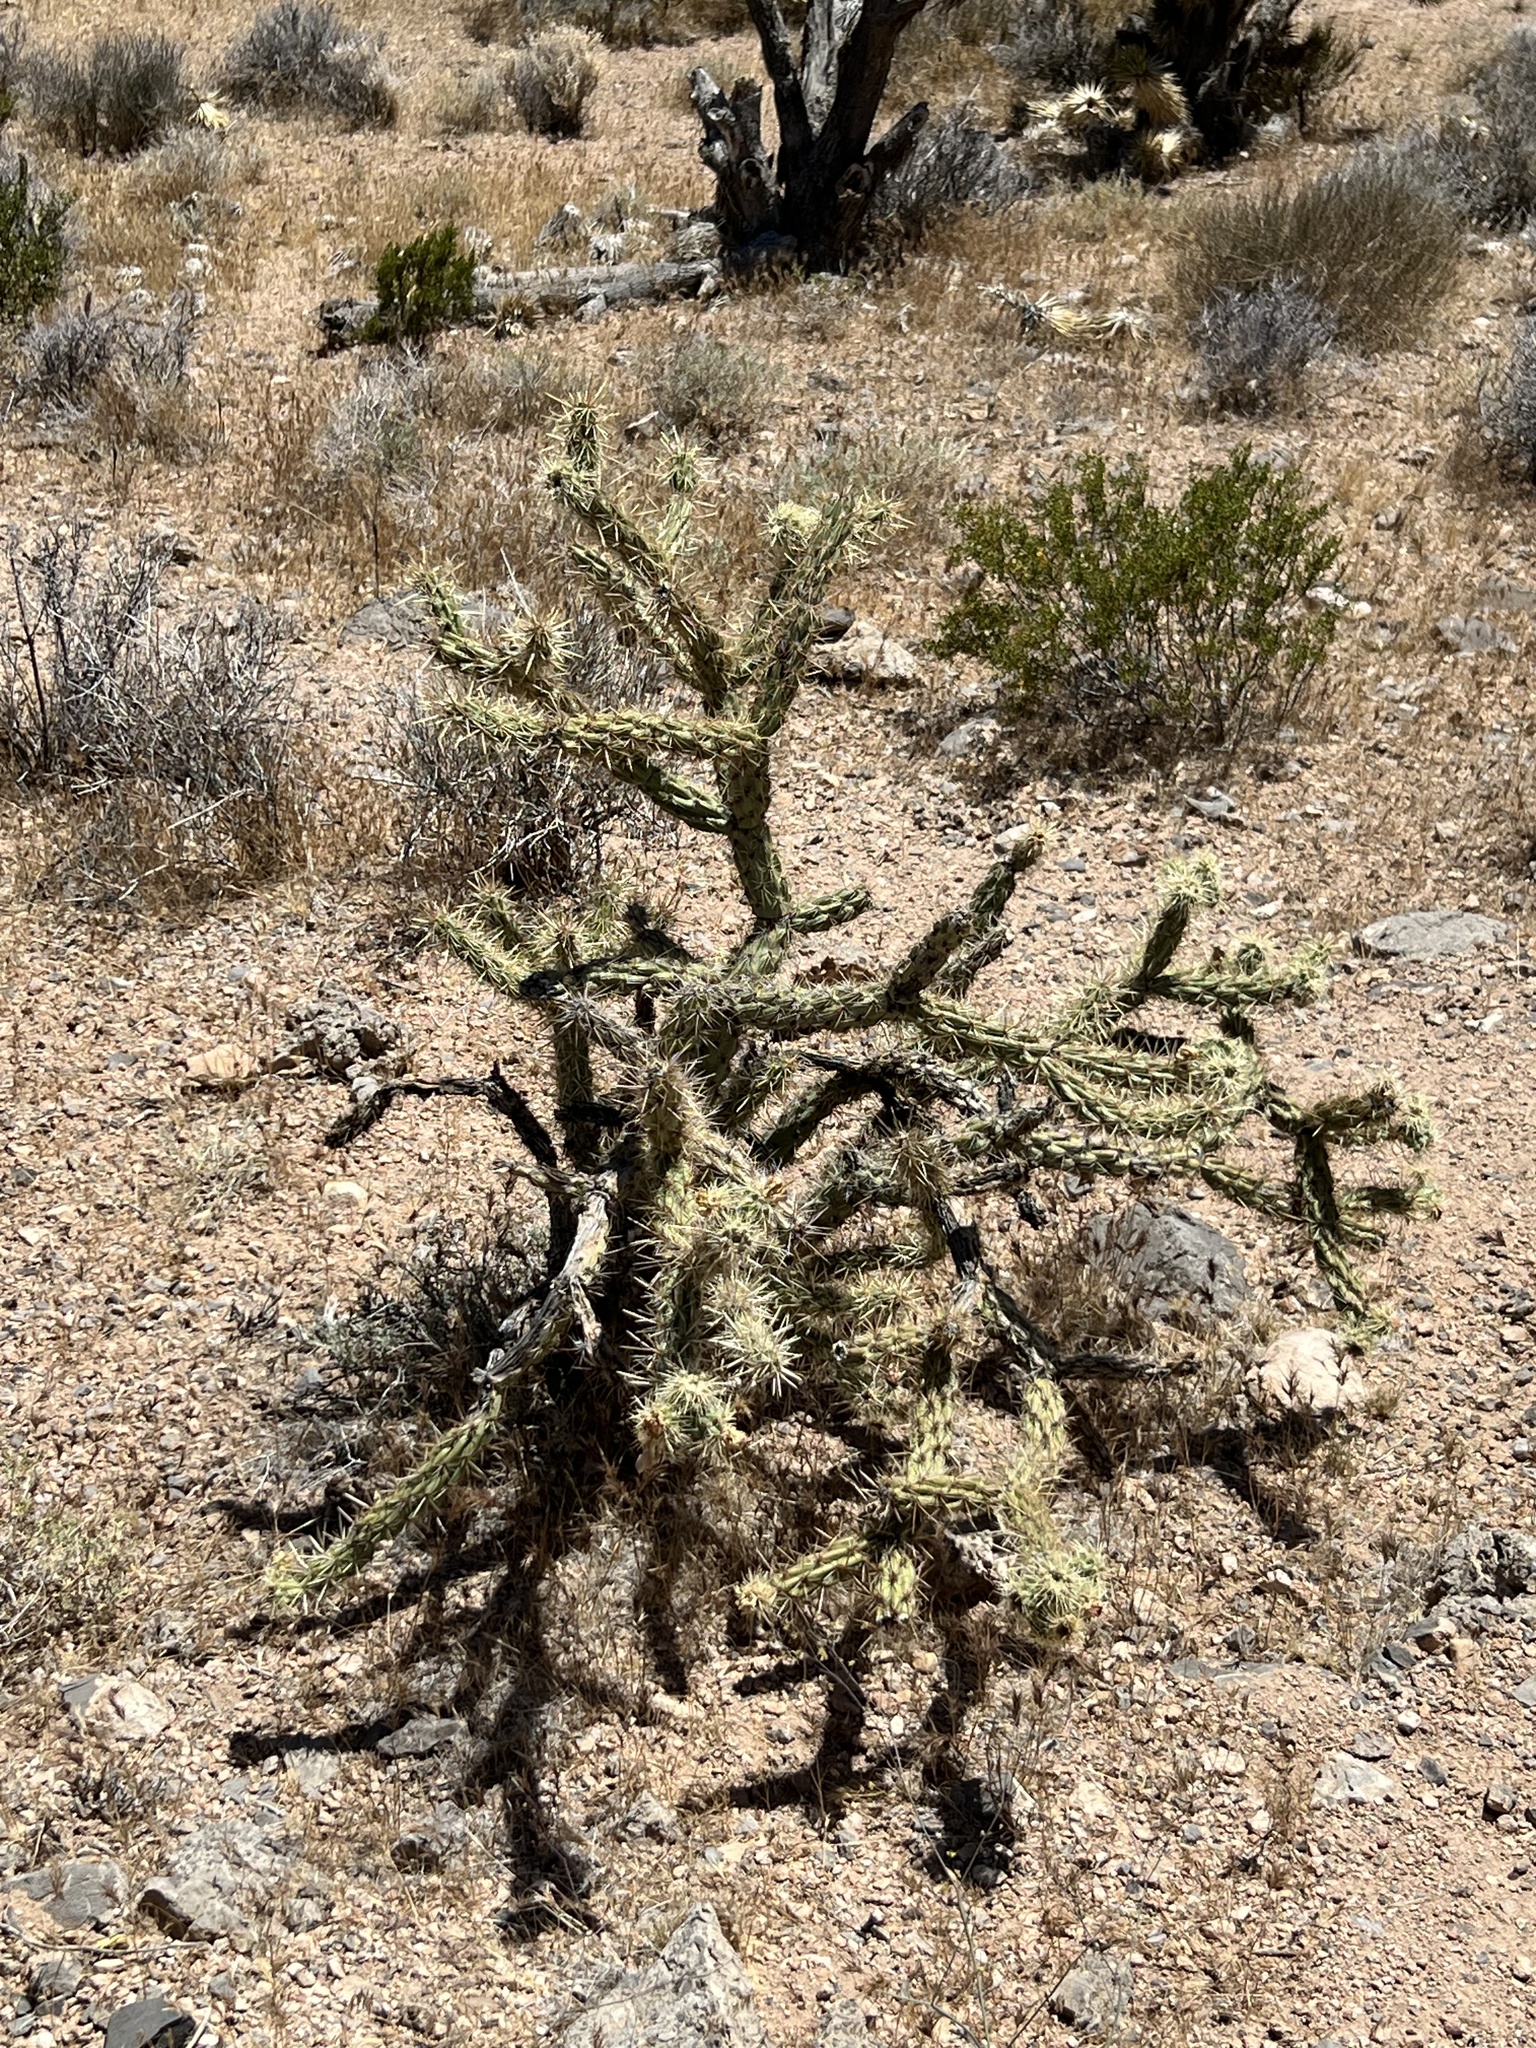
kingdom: Plantae
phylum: Tracheophyta
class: Magnoliopsida
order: Caryophyllales
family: Cactaceae
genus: Cylindropuntia
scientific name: Cylindropuntia acanthocarpa
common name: Buckhorn cholla
